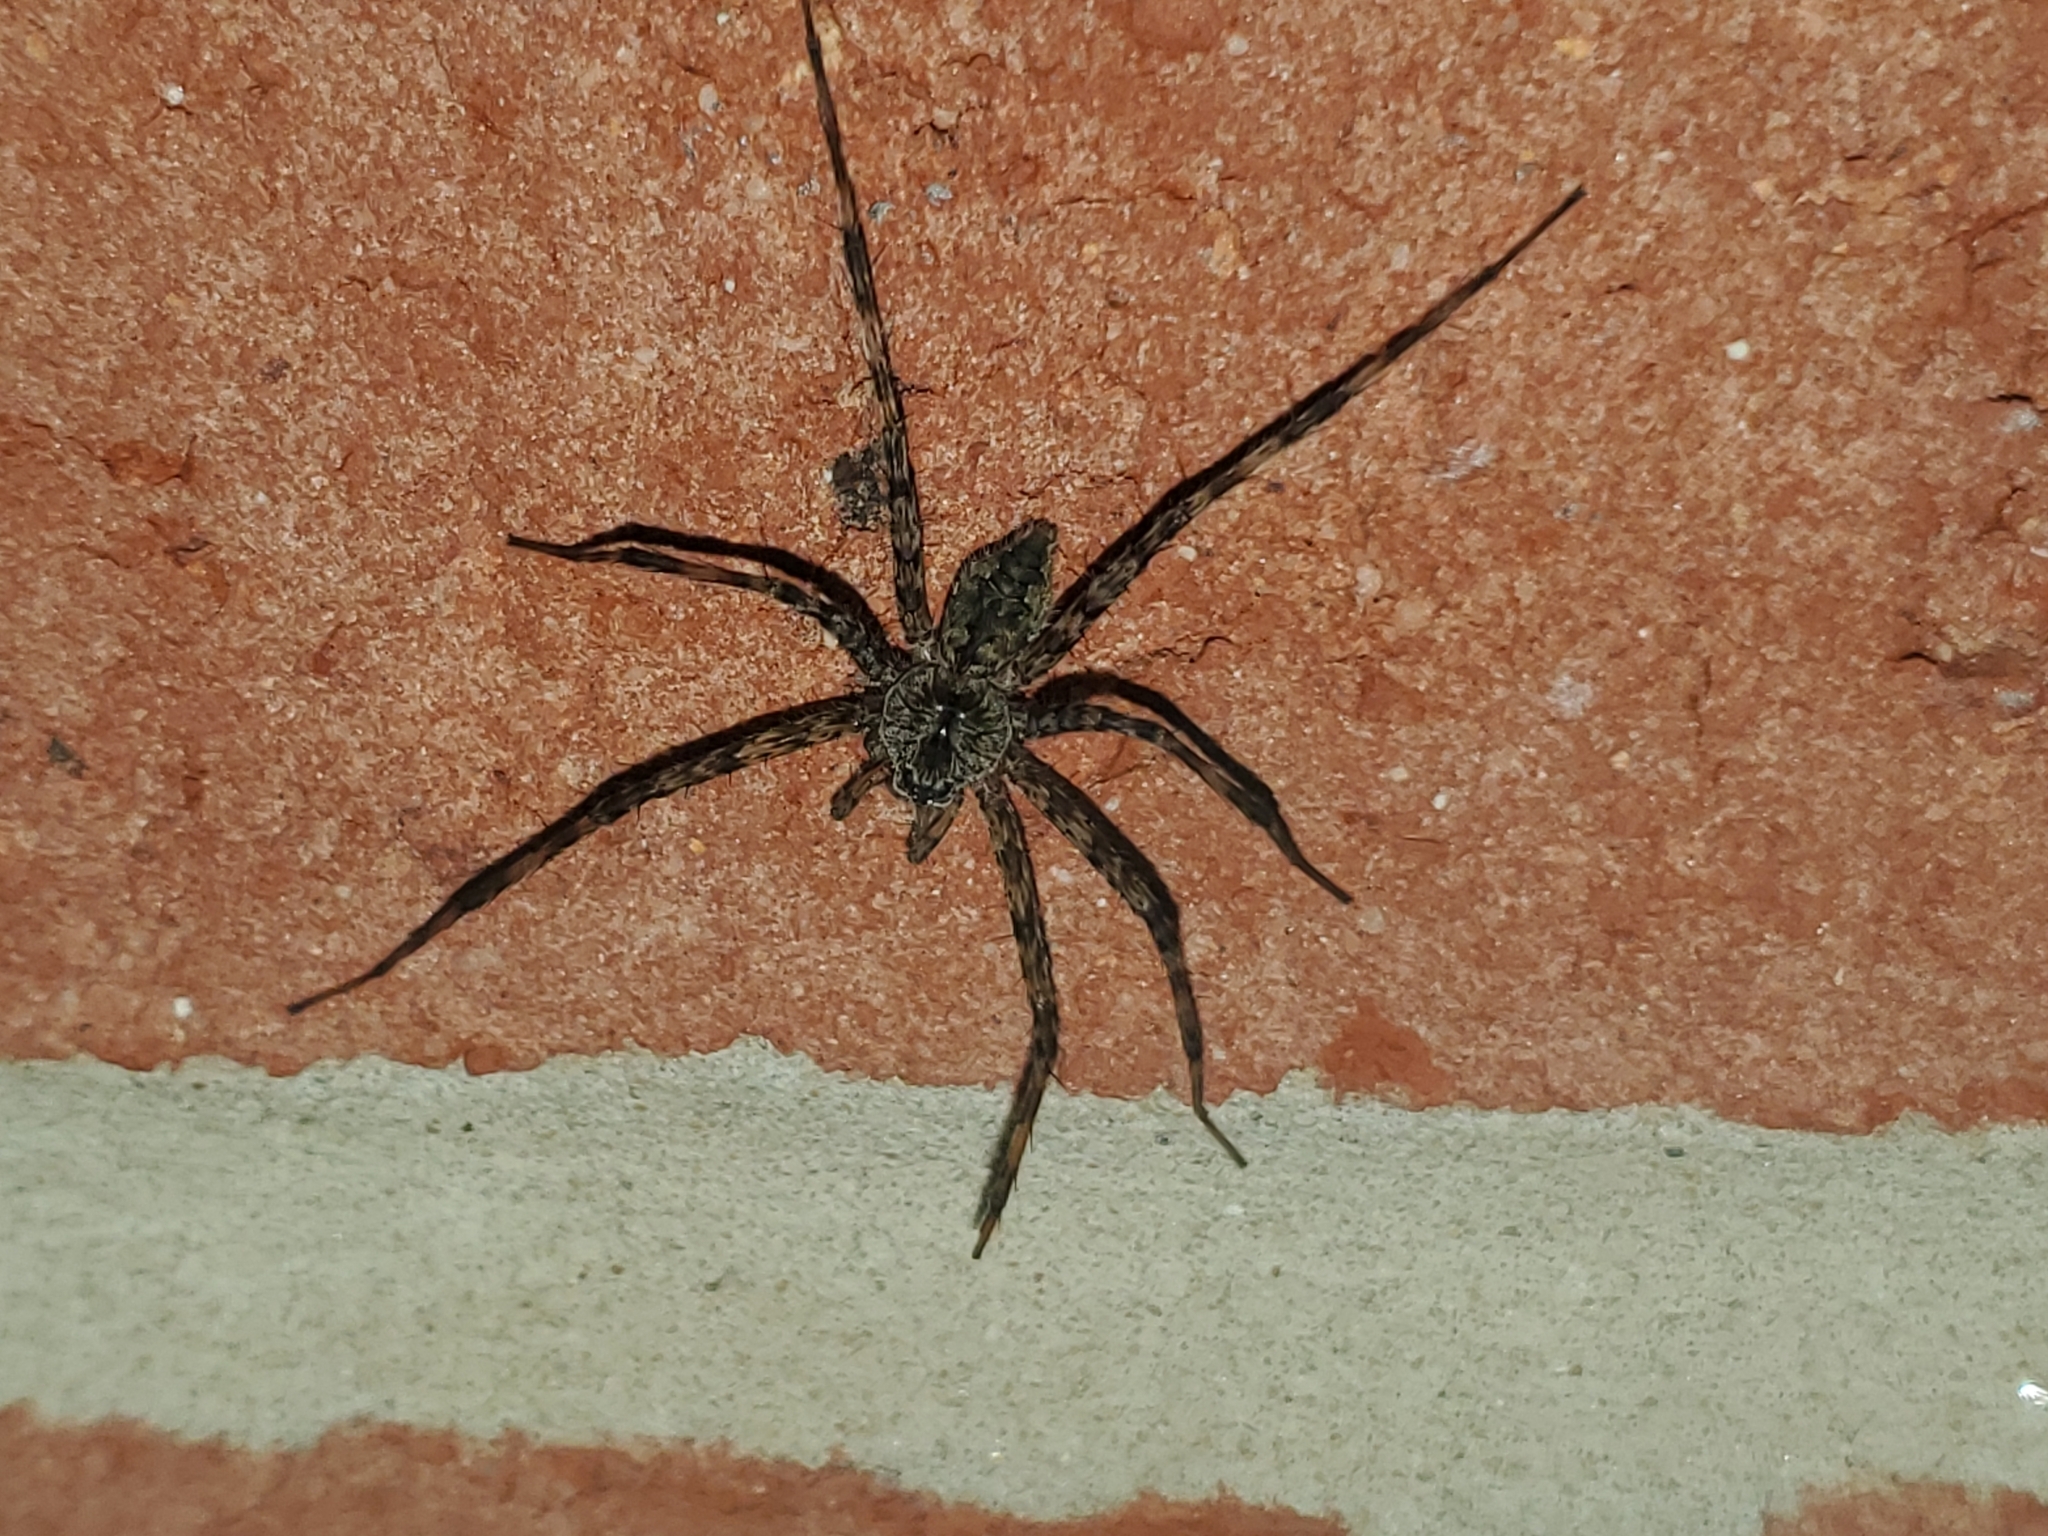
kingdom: Animalia
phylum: Arthropoda
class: Arachnida
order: Araneae
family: Pisauridae
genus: Dolomedes
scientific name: Dolomedes albineus
